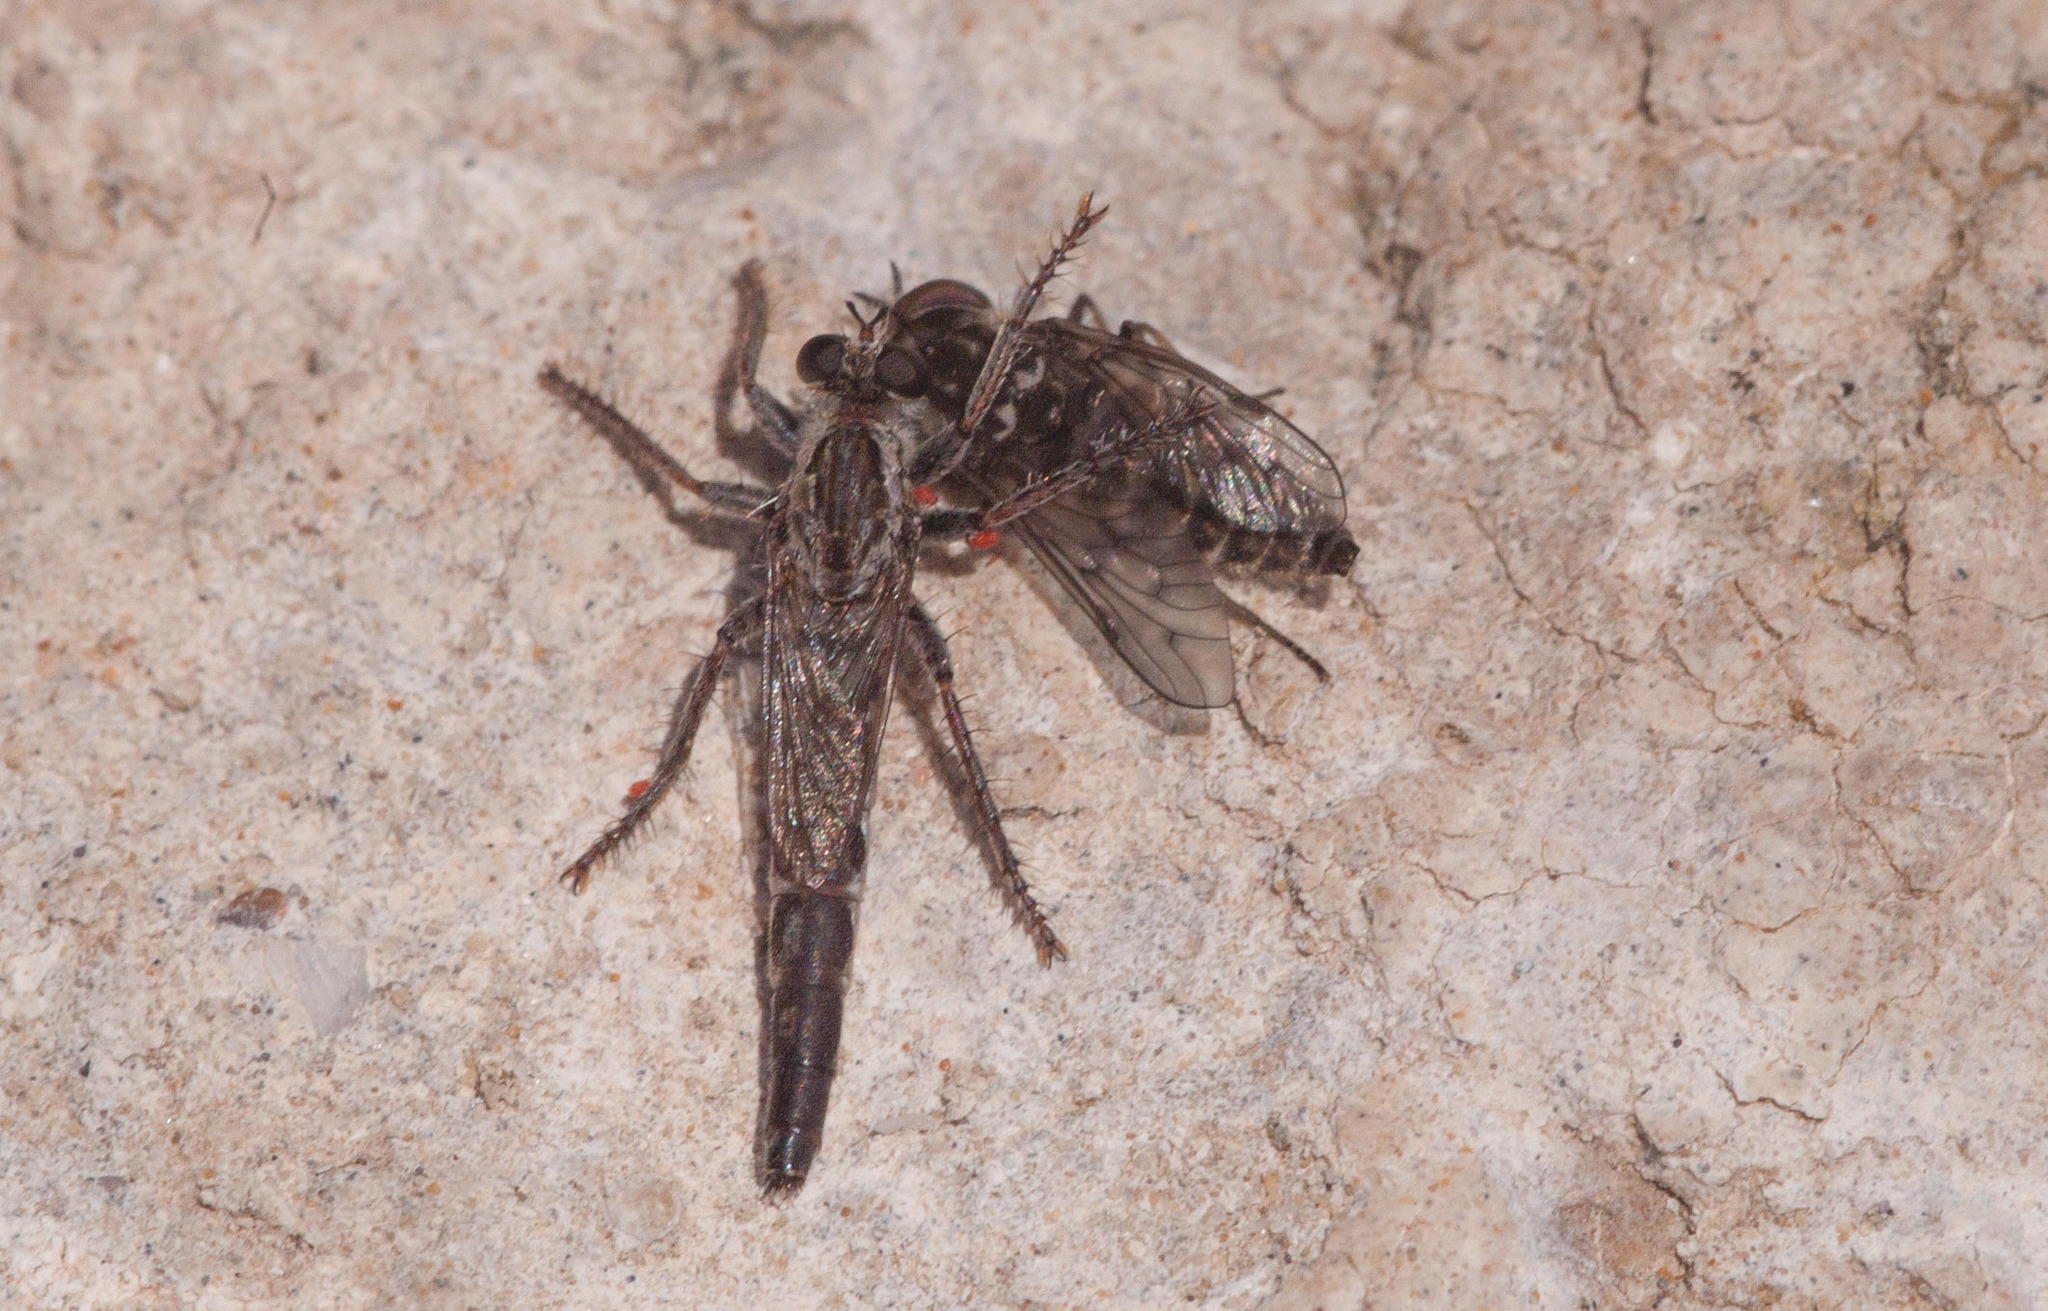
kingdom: Animalia
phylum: Arthropoda
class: Insecta
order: Diptera
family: Asilidae
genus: Bathypogon
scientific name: Bathypogon
